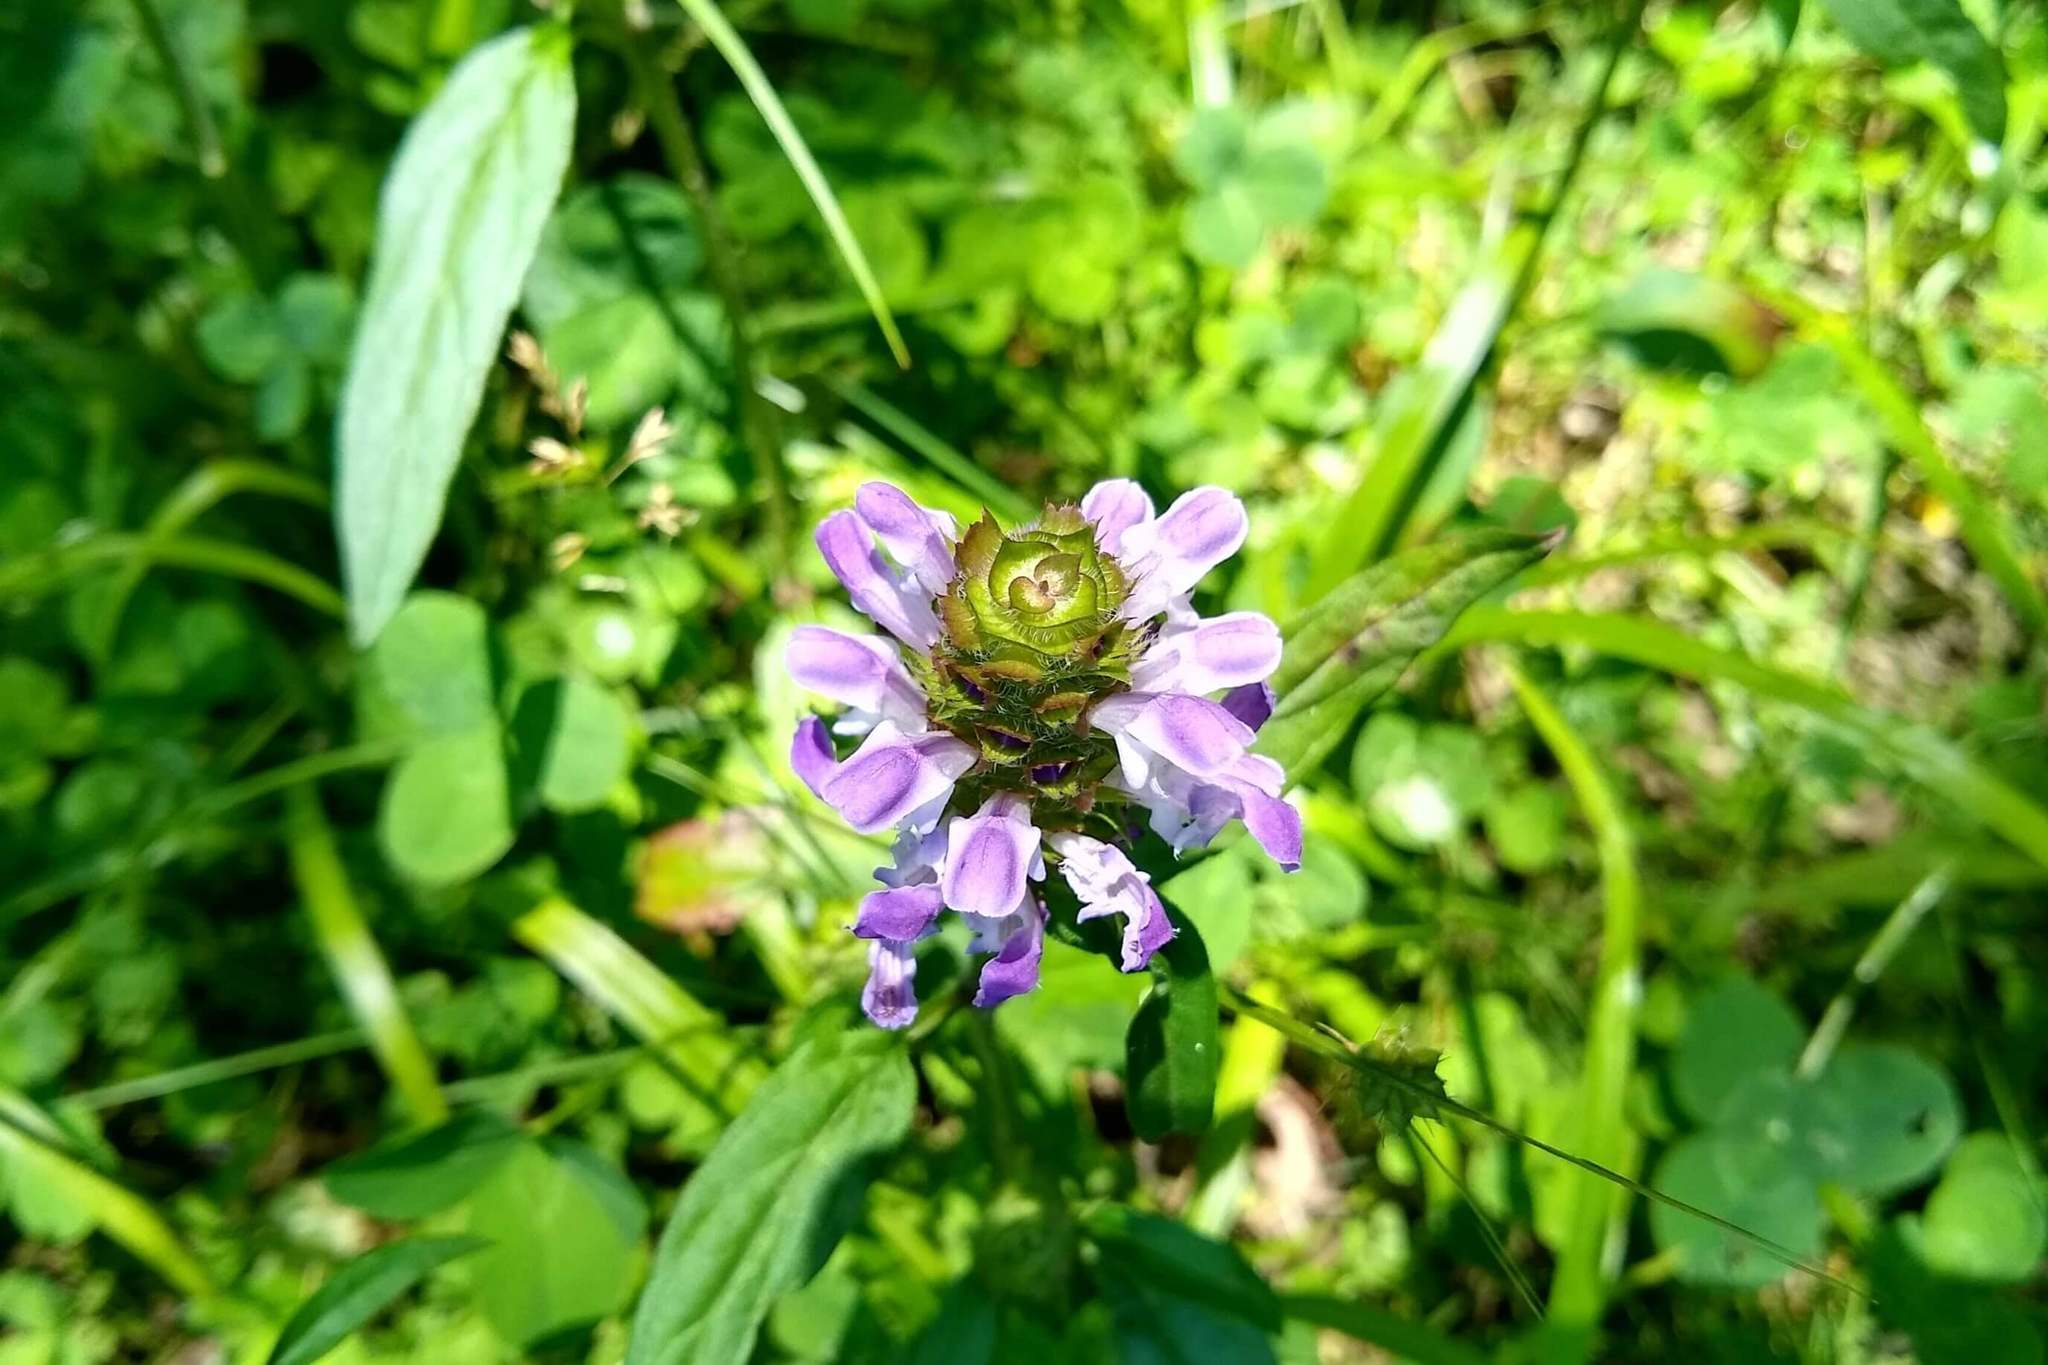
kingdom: Plantae
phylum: Tracheophyta
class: Magnoliopsida
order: Lamiales
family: Lamiaceae
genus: Prunella
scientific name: Prunella vulgaris
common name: Heal-all
